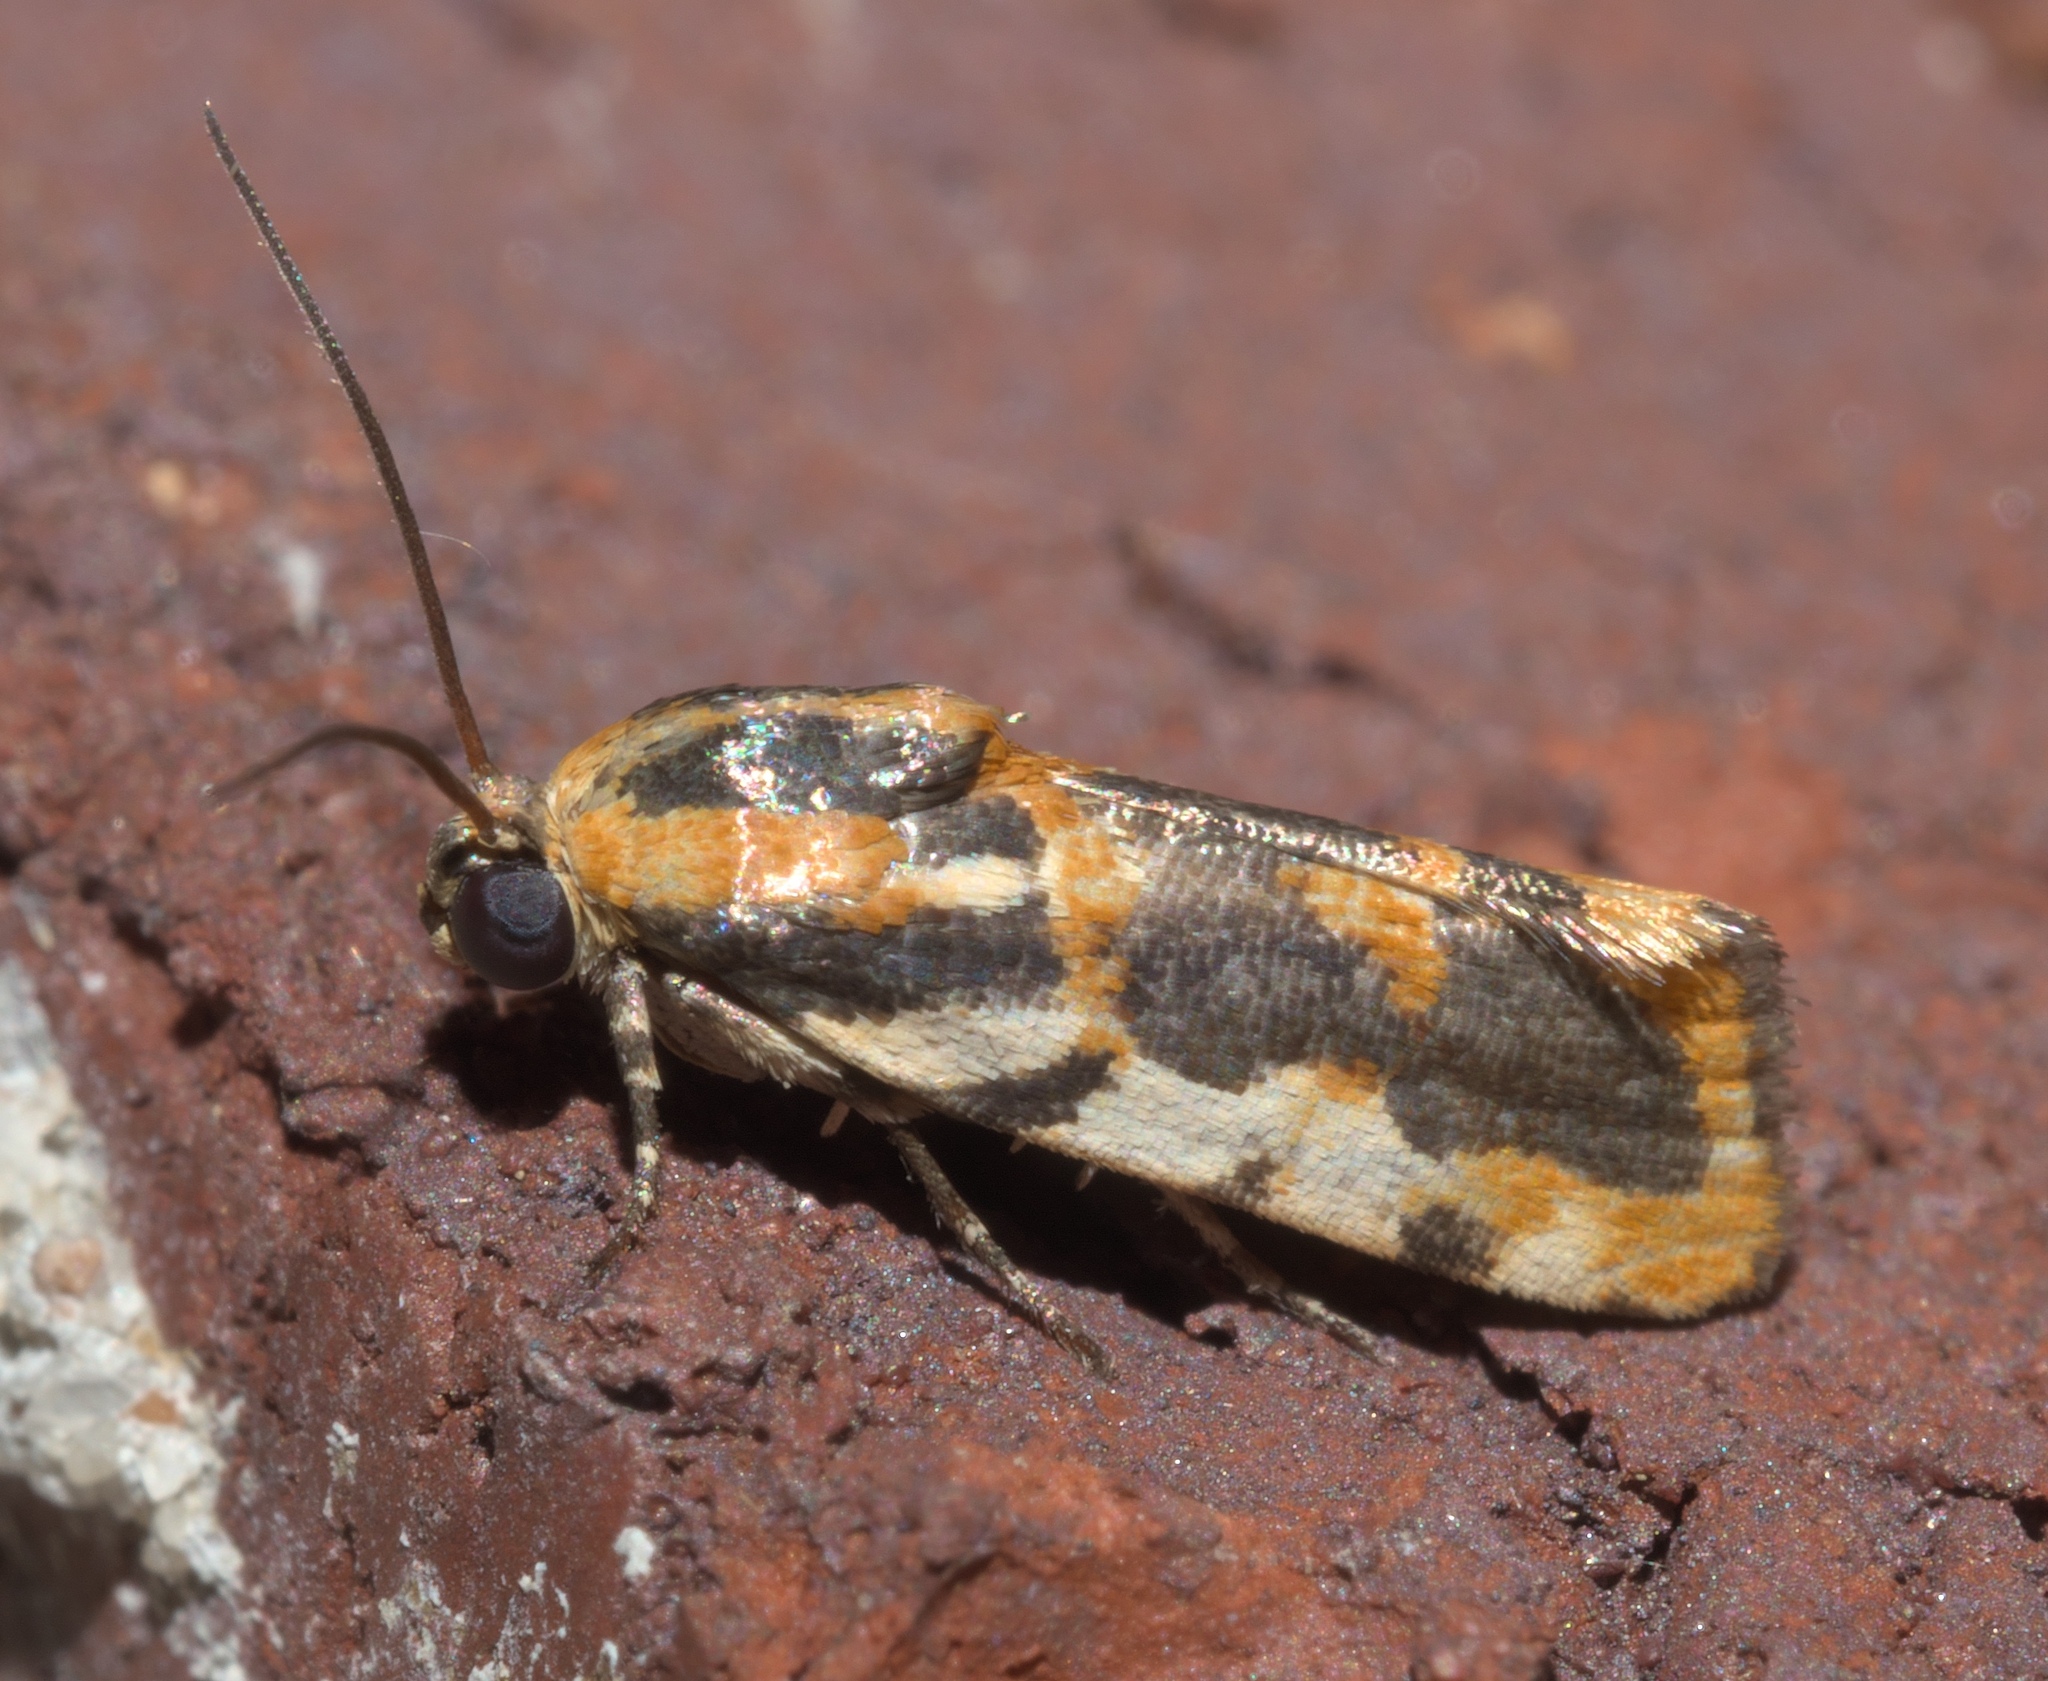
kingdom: Animalia
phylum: Arthropoda
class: Insecta
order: Lepidoptera
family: Noctuidae
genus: Acontia
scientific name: Acontia leo
